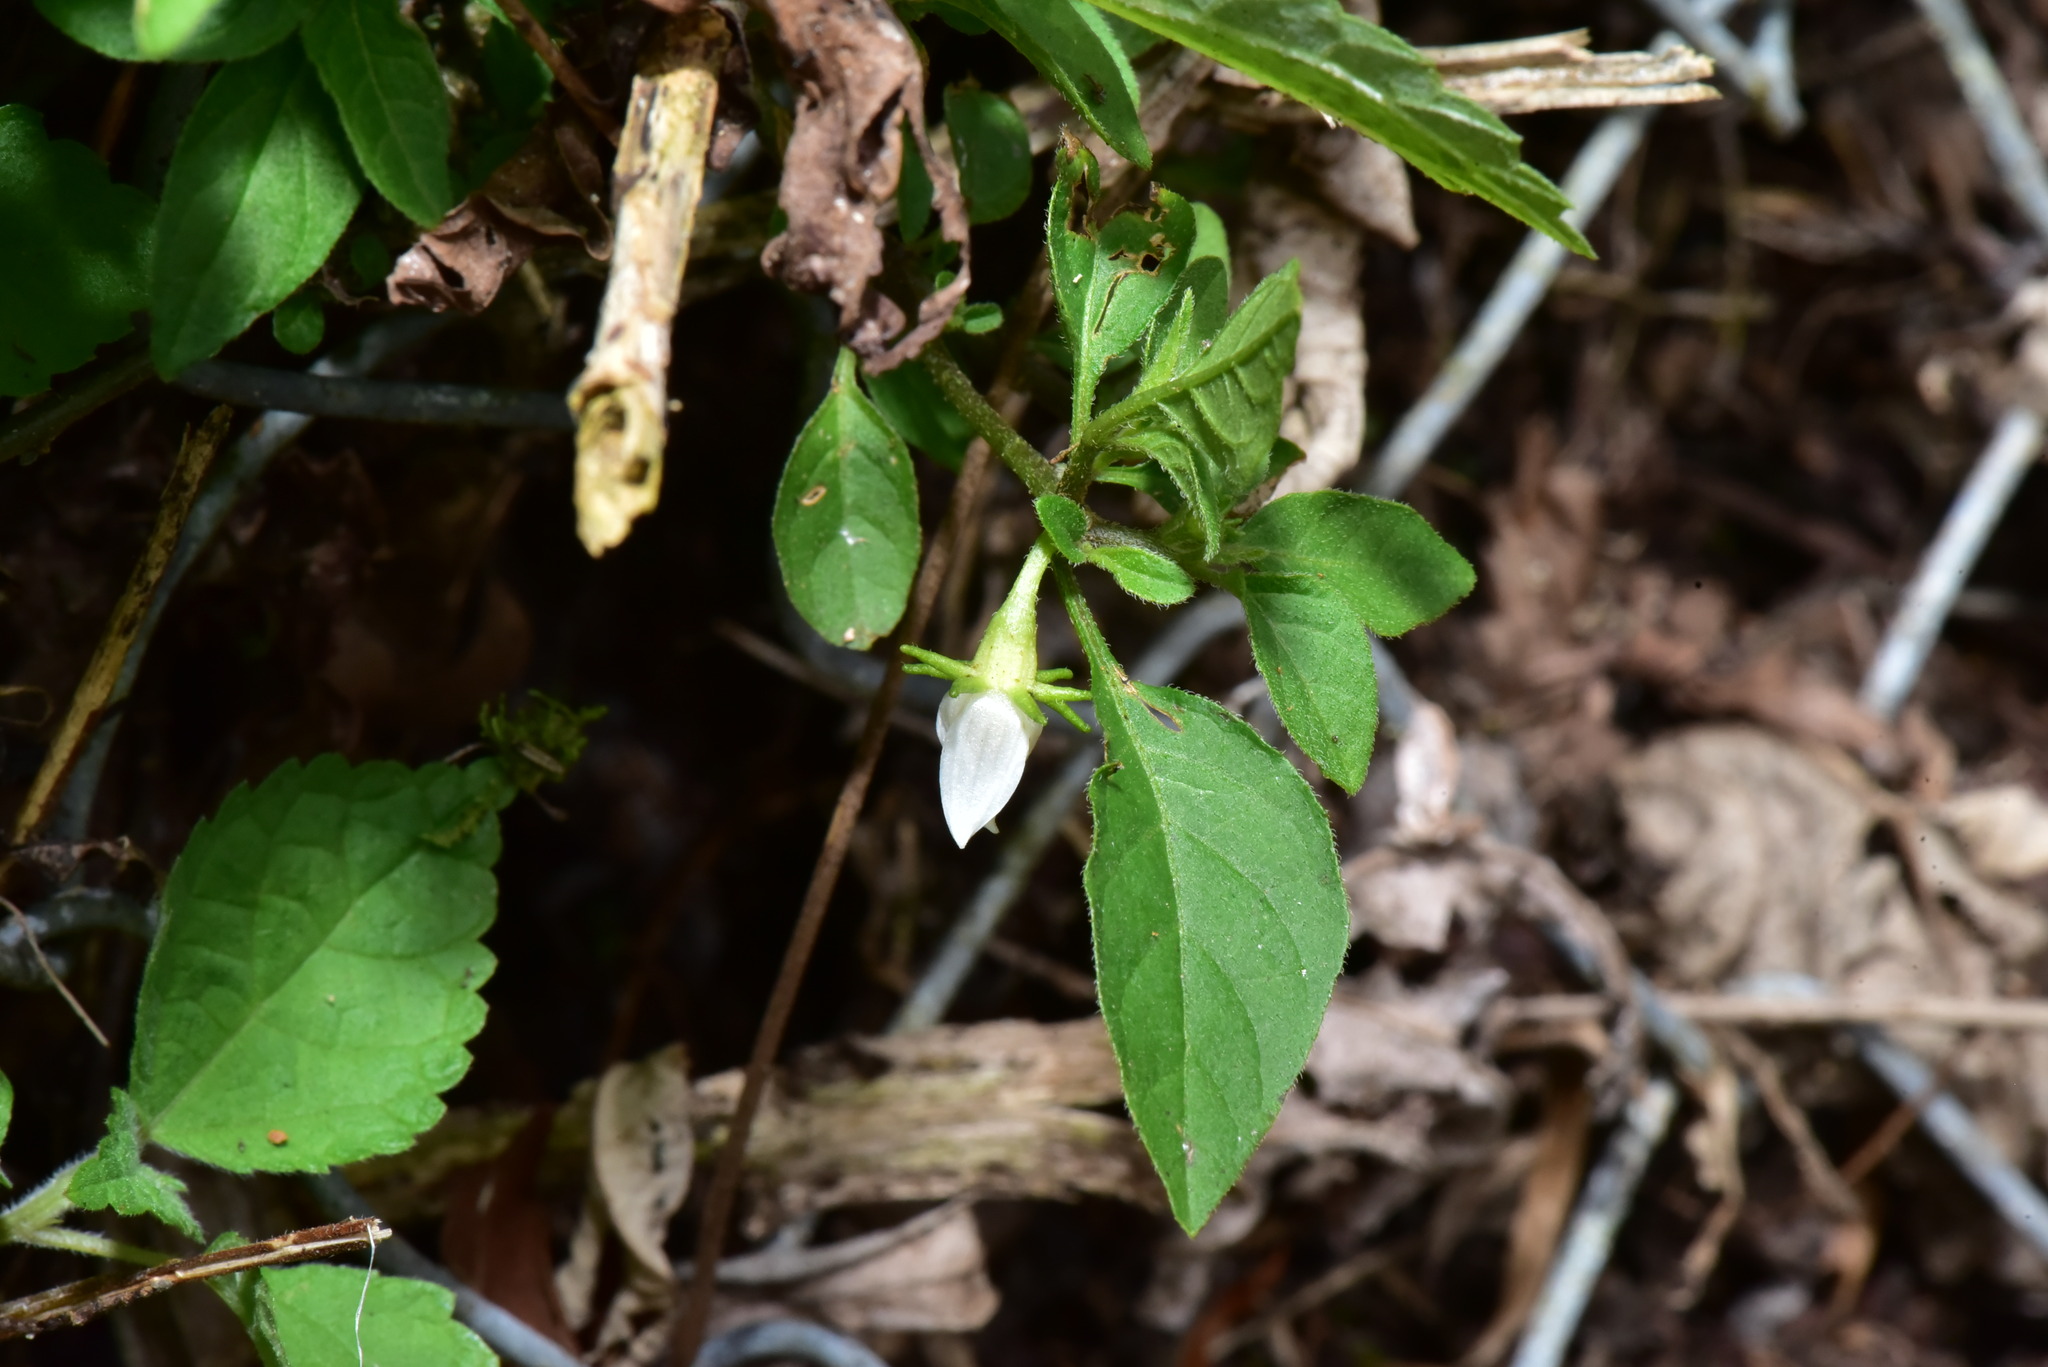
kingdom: Plantae
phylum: Tracheophyta
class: Magnoliopsida
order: Solanales
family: Solanaceae
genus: Lycianthes
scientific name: Lycianthes biflora
